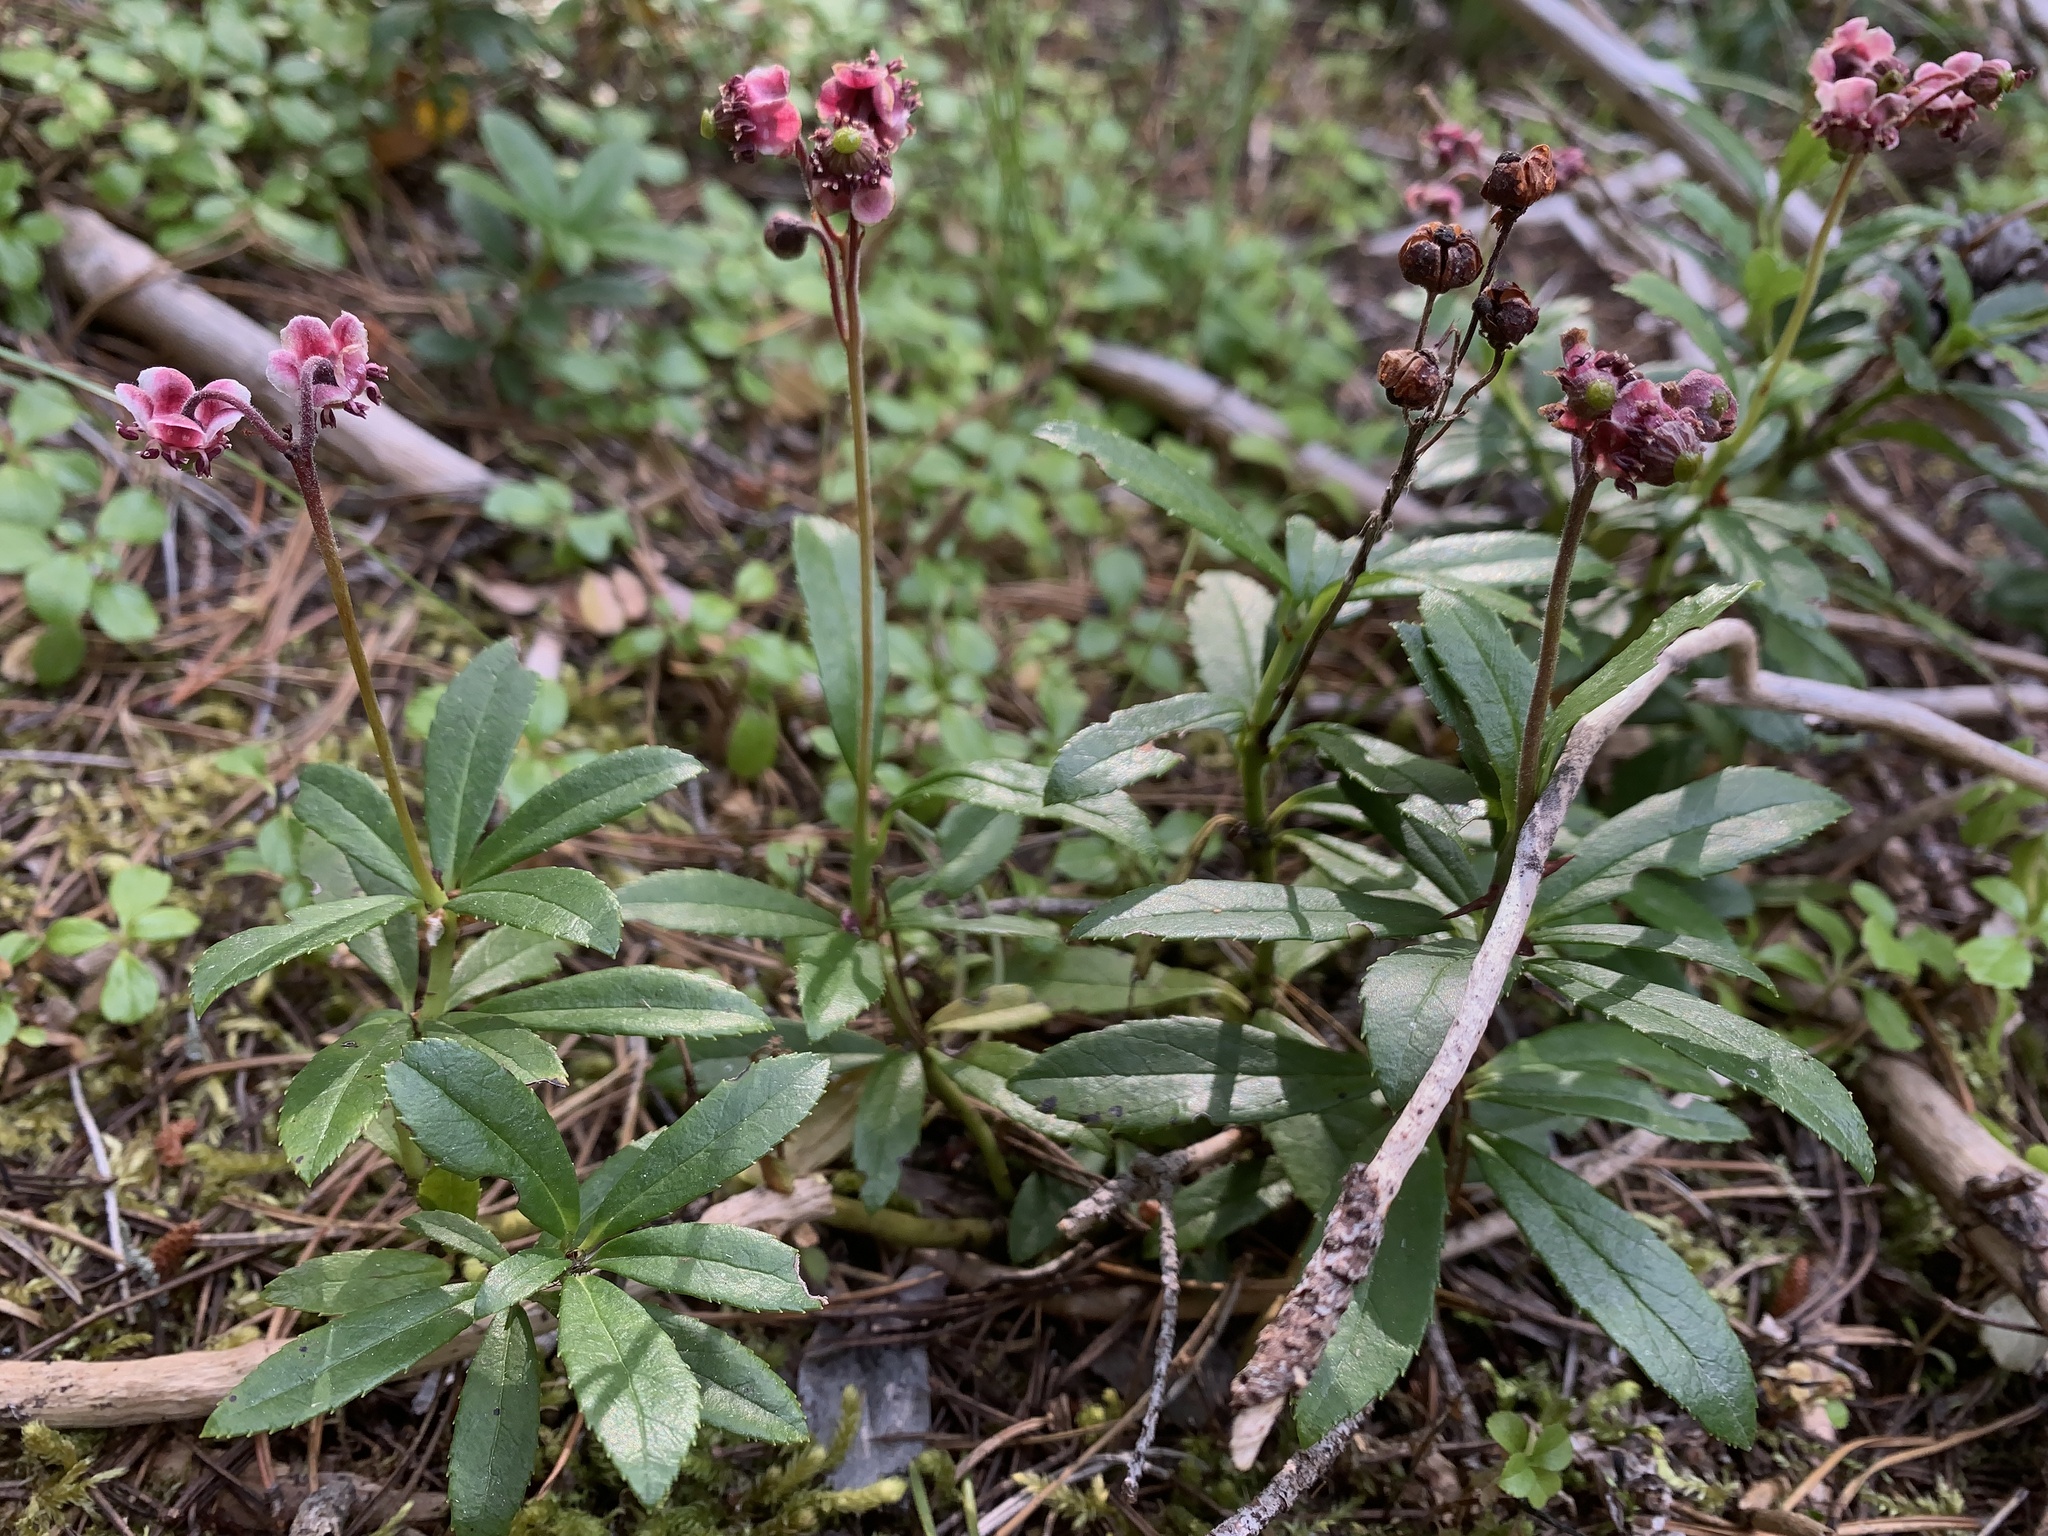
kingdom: Plantae
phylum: Tracheophyta
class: Magnoliopsida
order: Ericales
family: Ericaceae
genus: Chimaphila
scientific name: Chimaphila umbellata
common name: Pipsissewa
